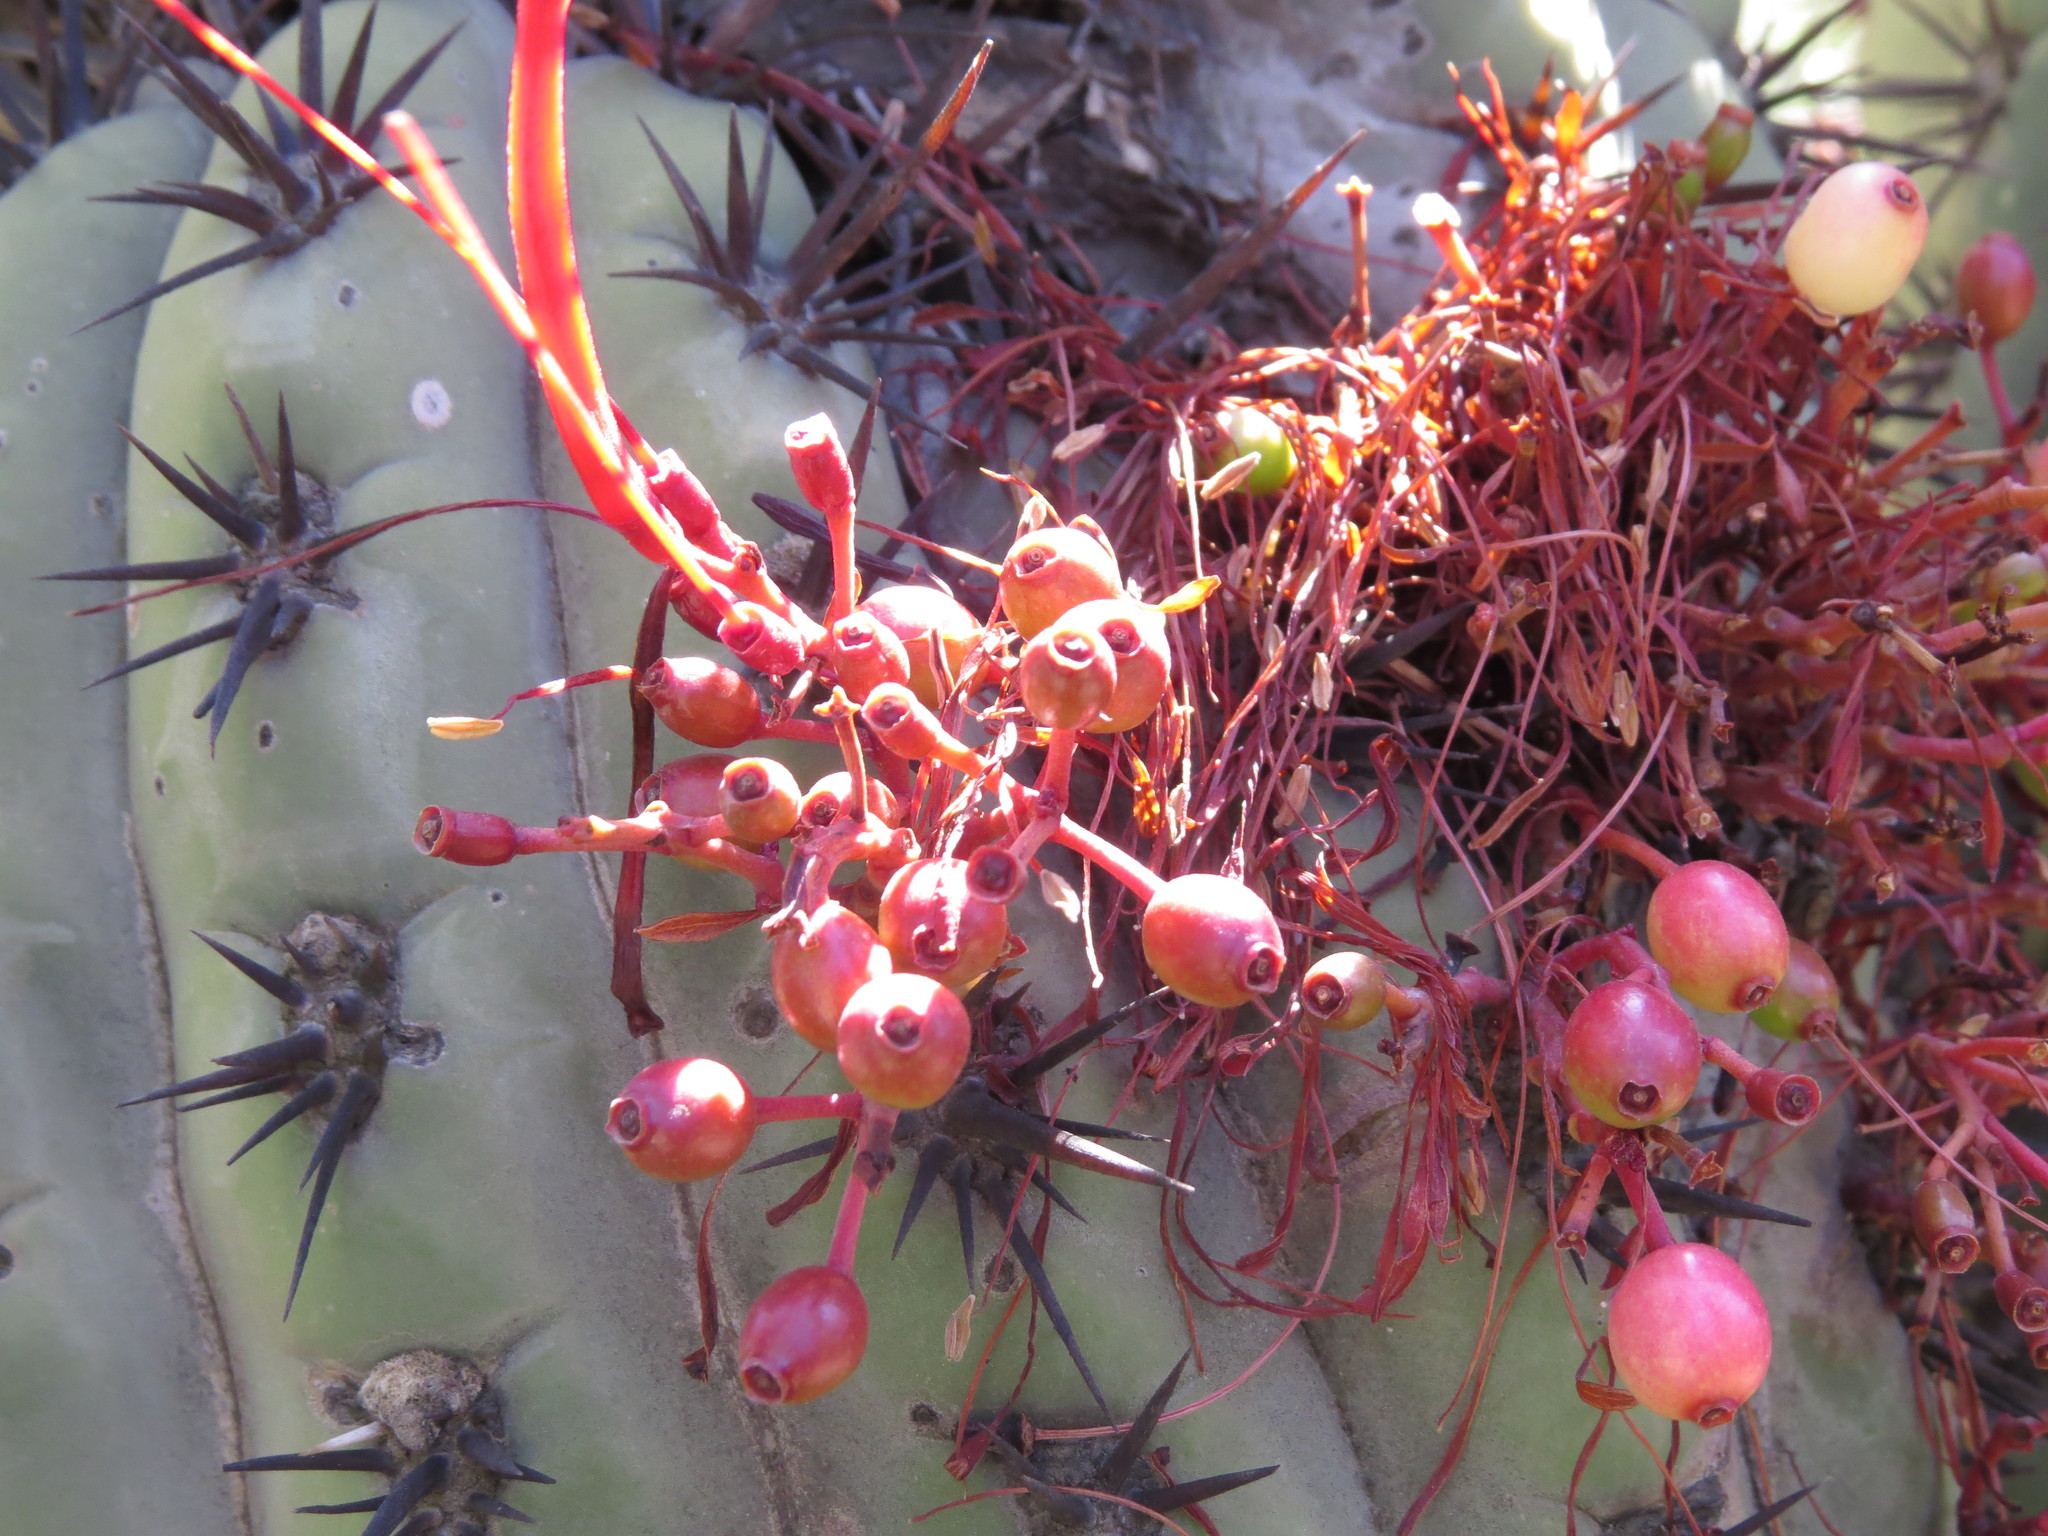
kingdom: Plantae
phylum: Tracheophyta
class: Magnoliopsida
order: Santalales
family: Loranthaceae
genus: Tristerix
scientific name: Tristerix aphyllus
